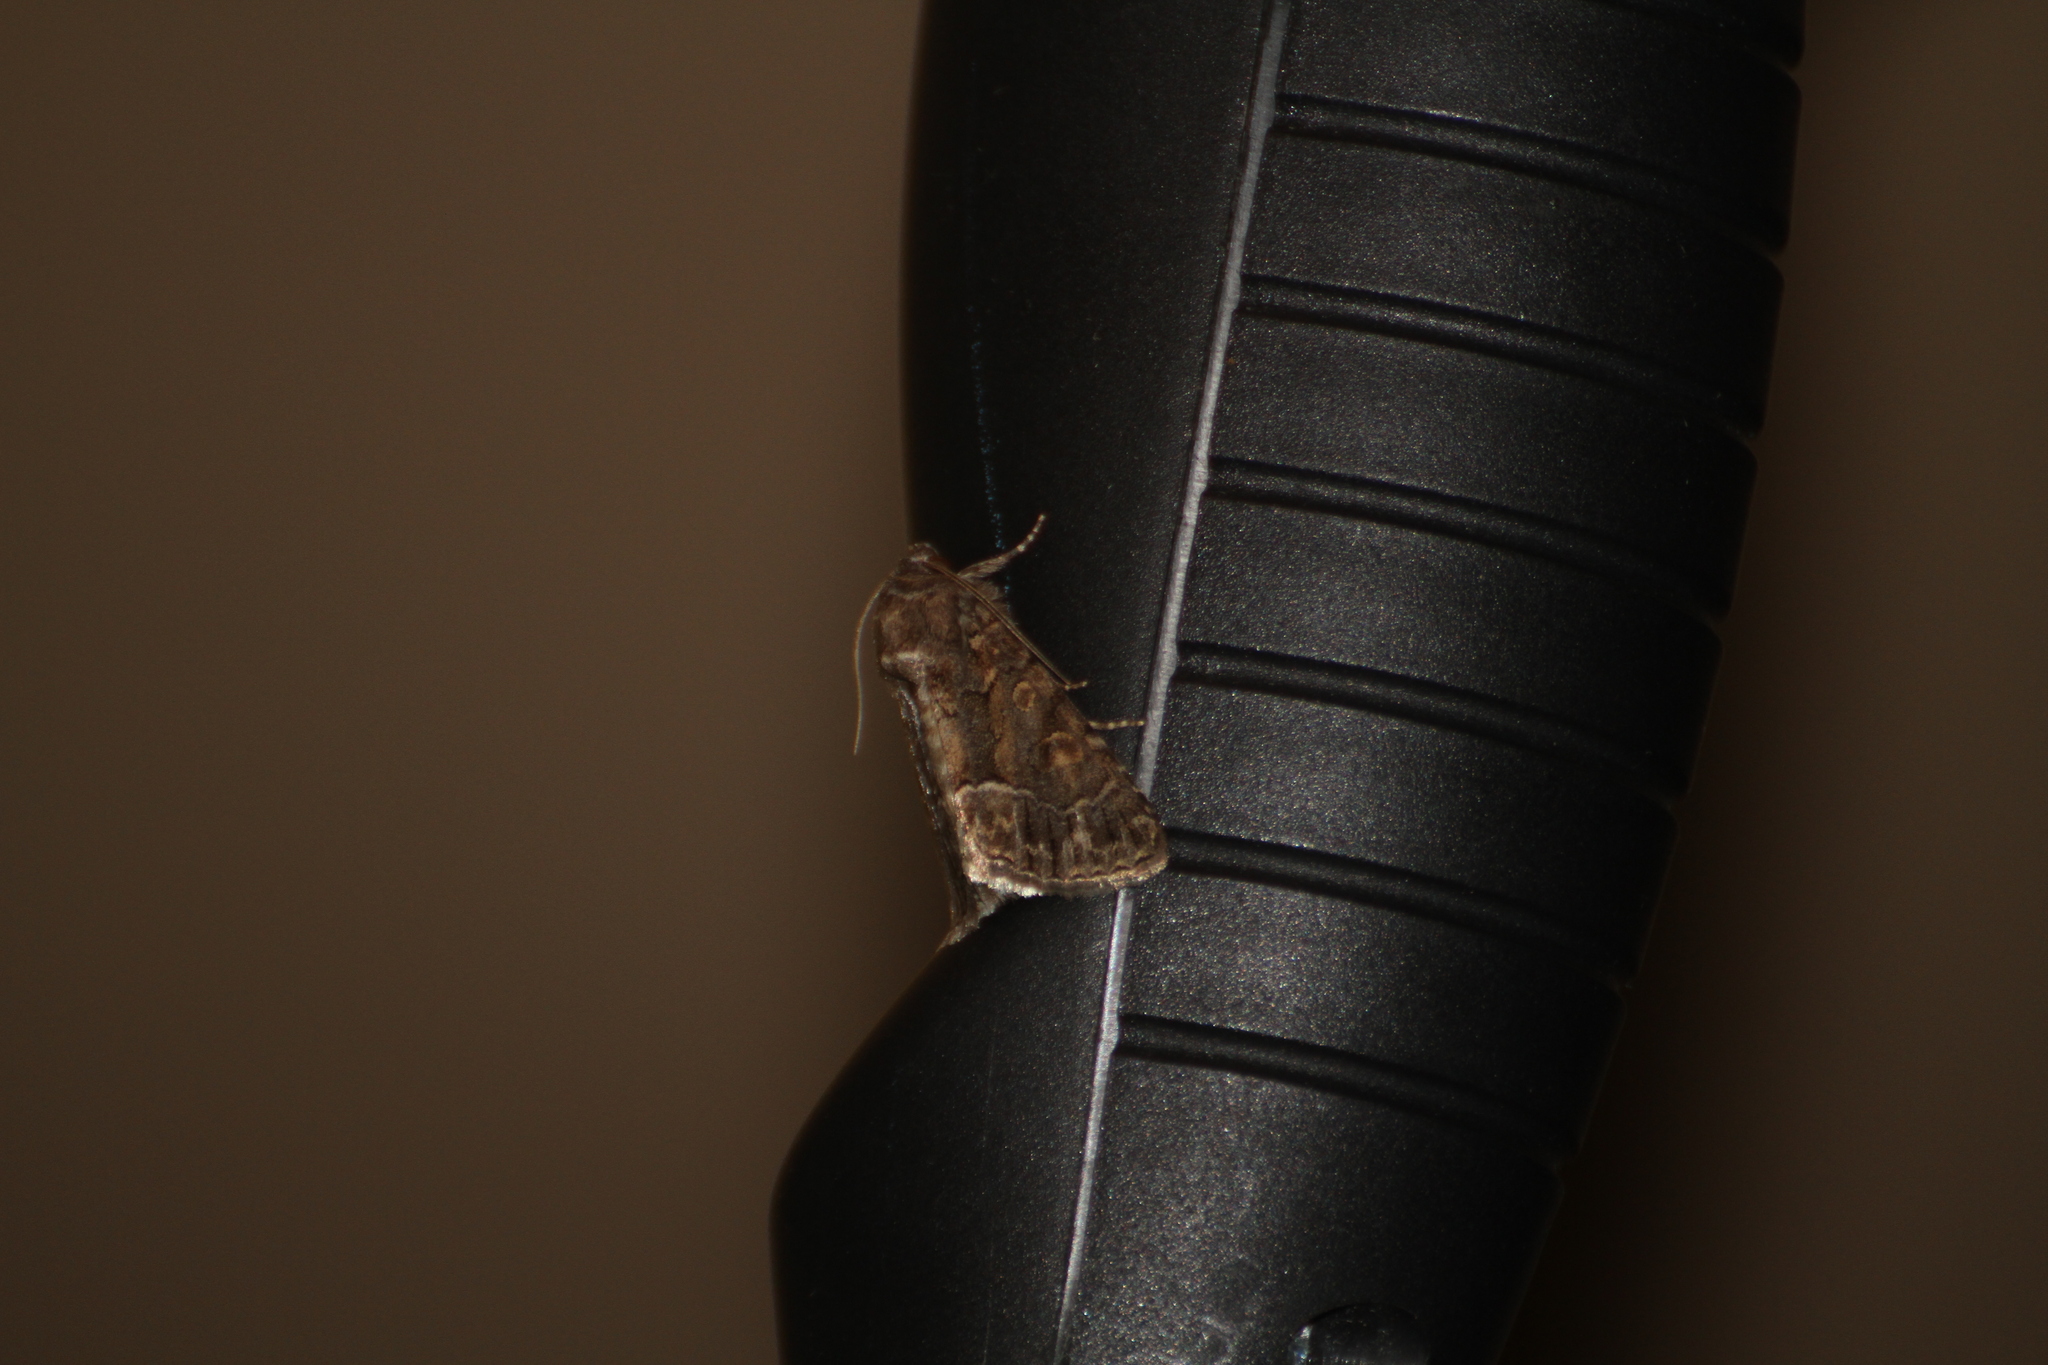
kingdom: Animalia
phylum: Arthropoda
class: Insecta
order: Lepidoptera
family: Noctuidae
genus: Thalpophila
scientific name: Thalpophila matura
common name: Straw underwing
